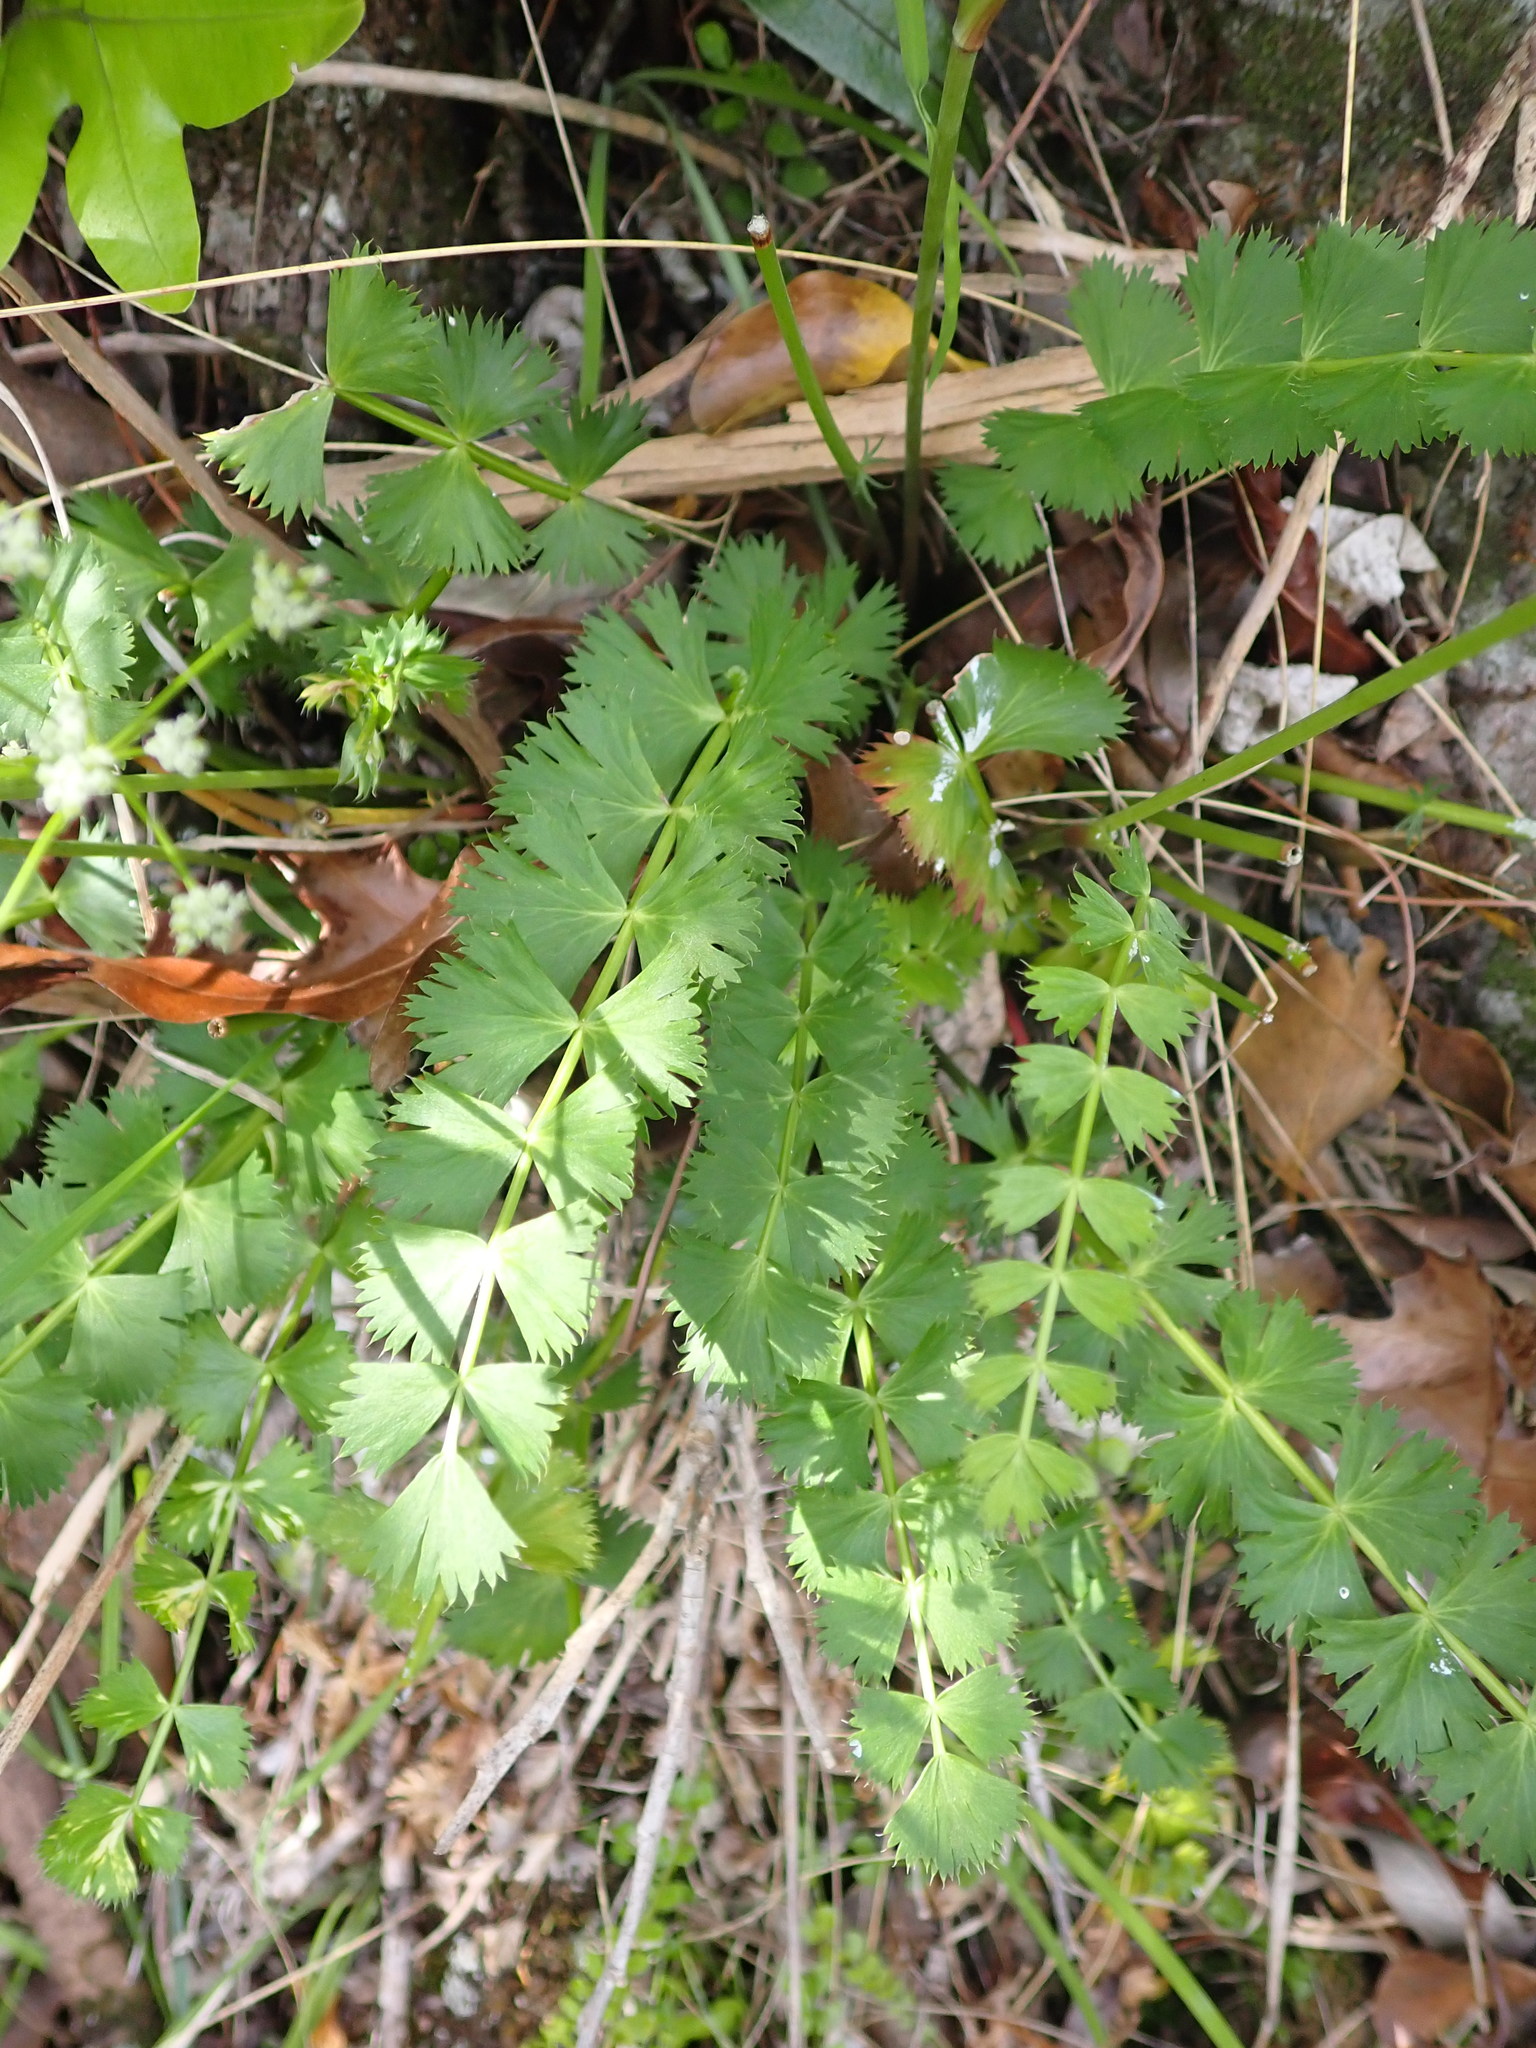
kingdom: Plantae
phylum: Tracheophyta
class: Magnoliopsida
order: Apiales
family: Apiaceae
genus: Anisotome
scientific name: Anisotome aromatica
